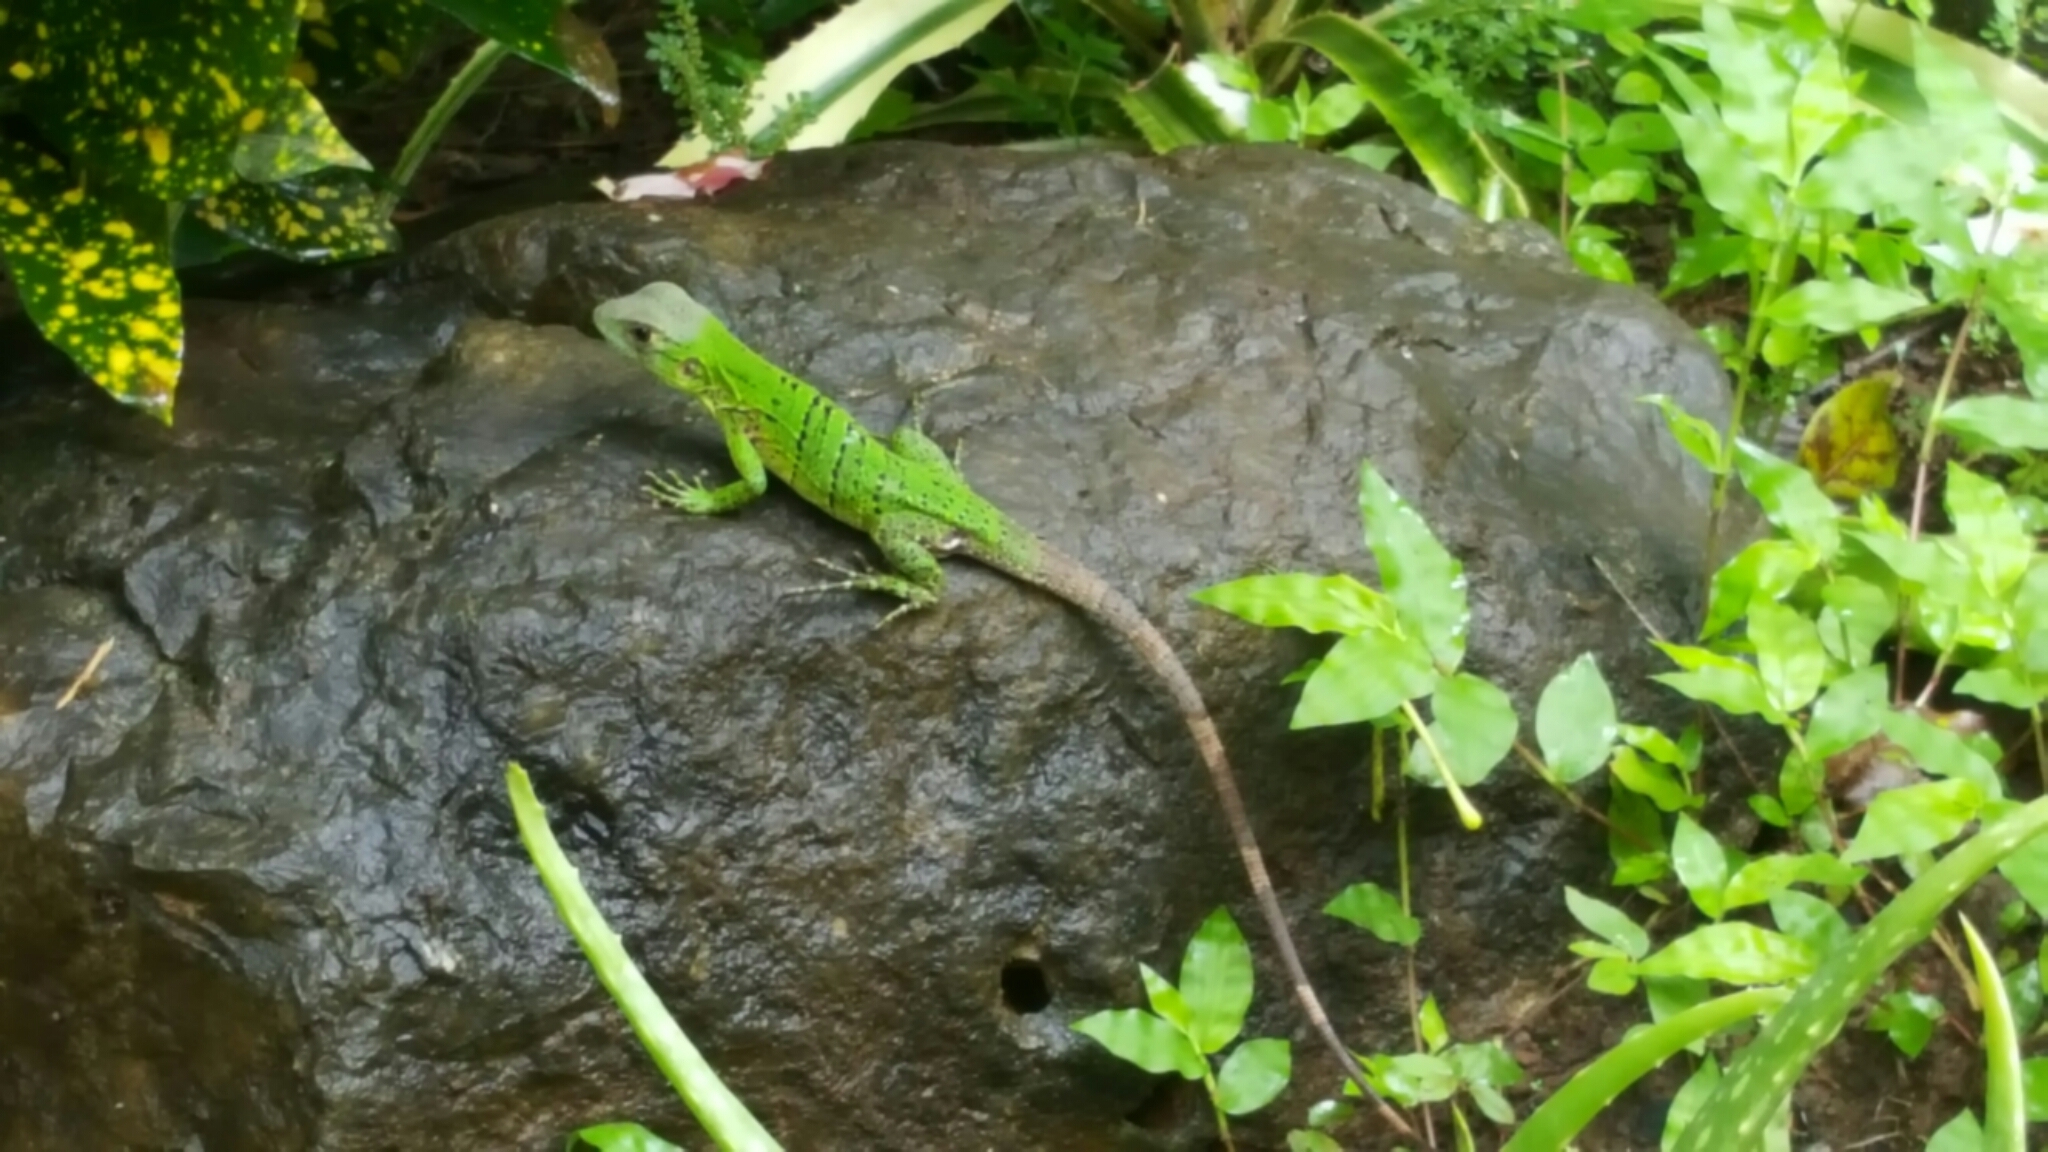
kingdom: Animalia
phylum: Chordata
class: Squamata
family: Iguanidae
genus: Ctenosaura
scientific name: Ctenosaura similis
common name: Black spiny-tailed iguana
